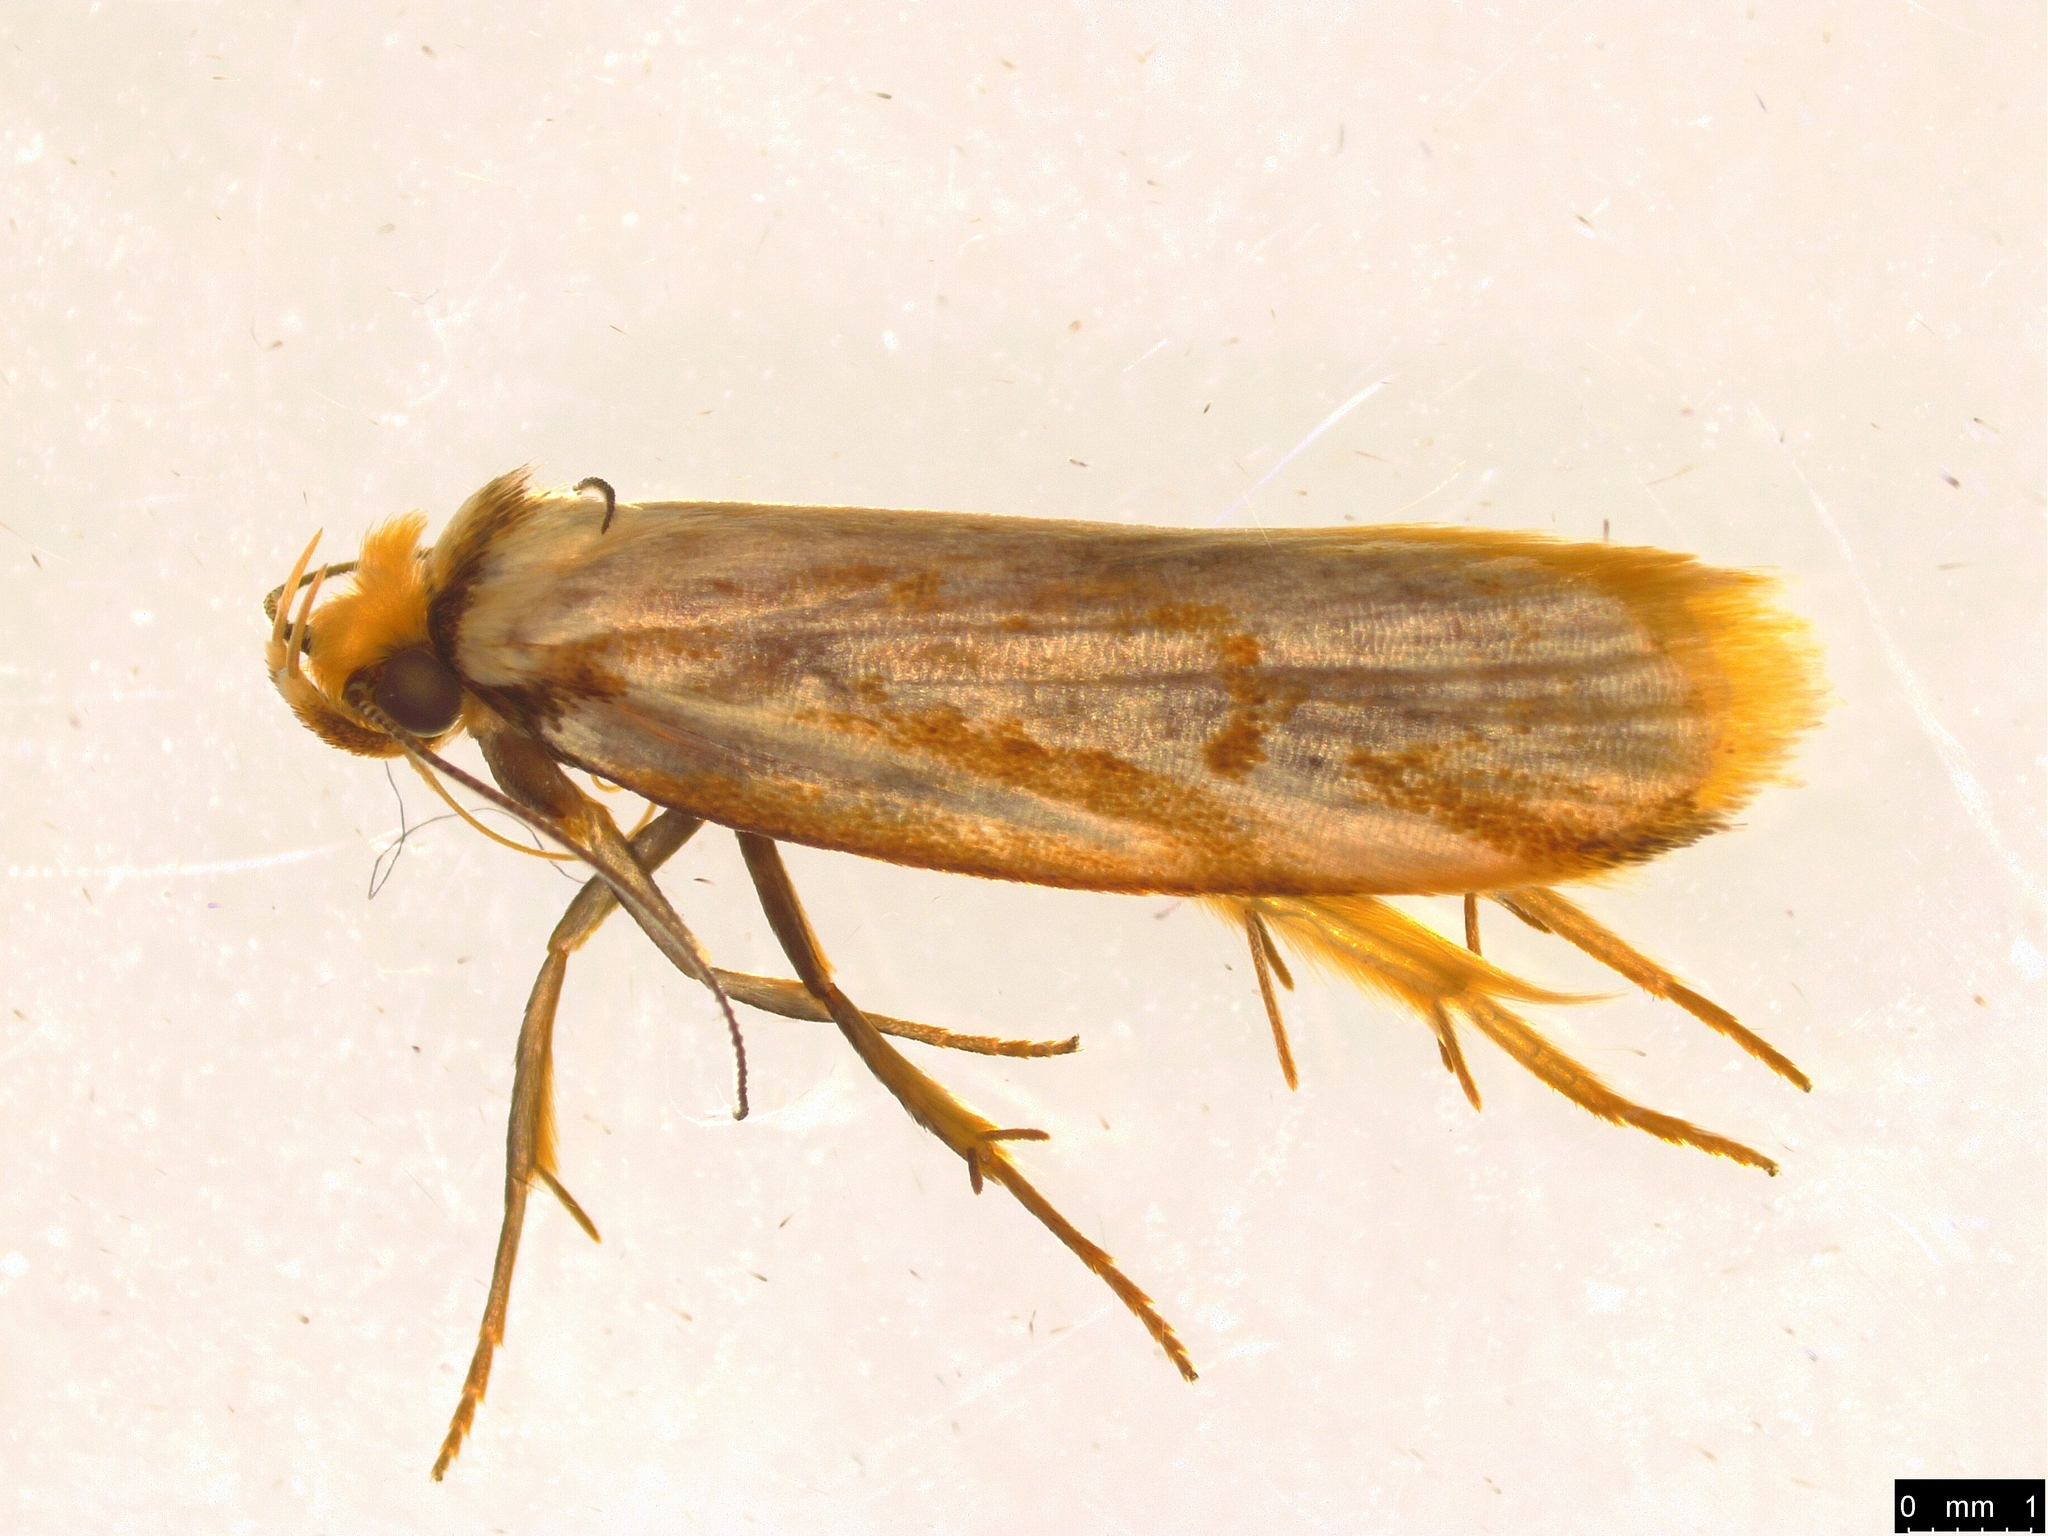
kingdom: Animalia
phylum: Arthropoda
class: Insecta
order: Lepidoptera
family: Oecophoridae
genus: Philobota
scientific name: Philobota cretacea
